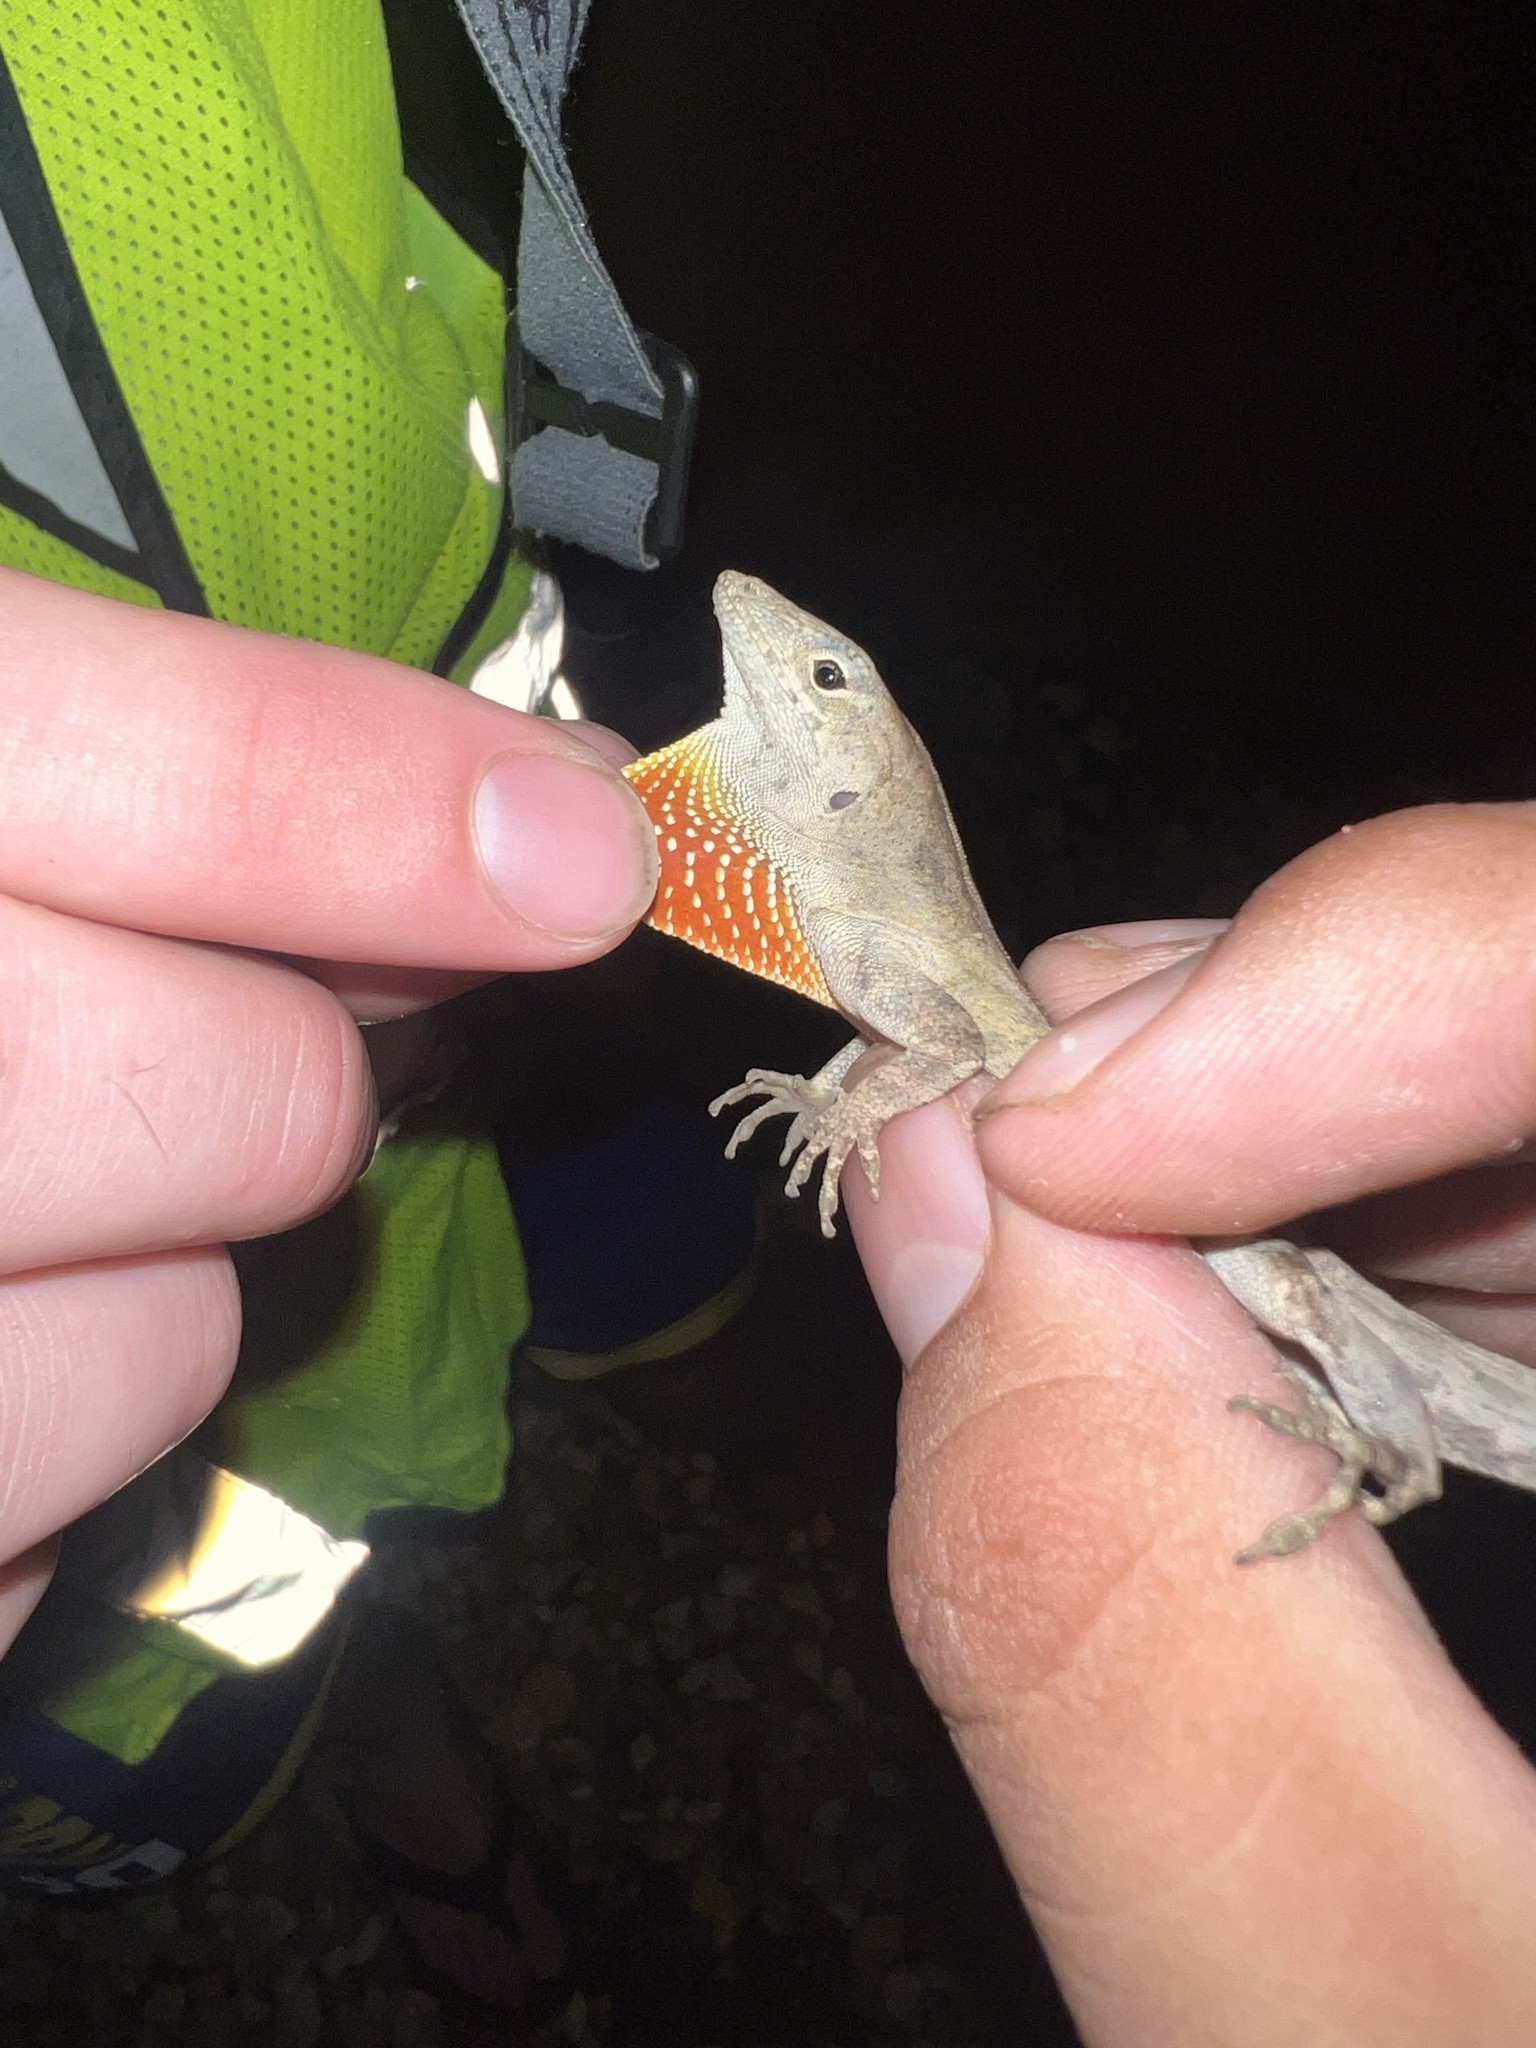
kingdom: Animalia
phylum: Chordata
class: Squamata
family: Dactyloidae
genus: Anolis
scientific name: Anolis sagrei
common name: Brown anole
